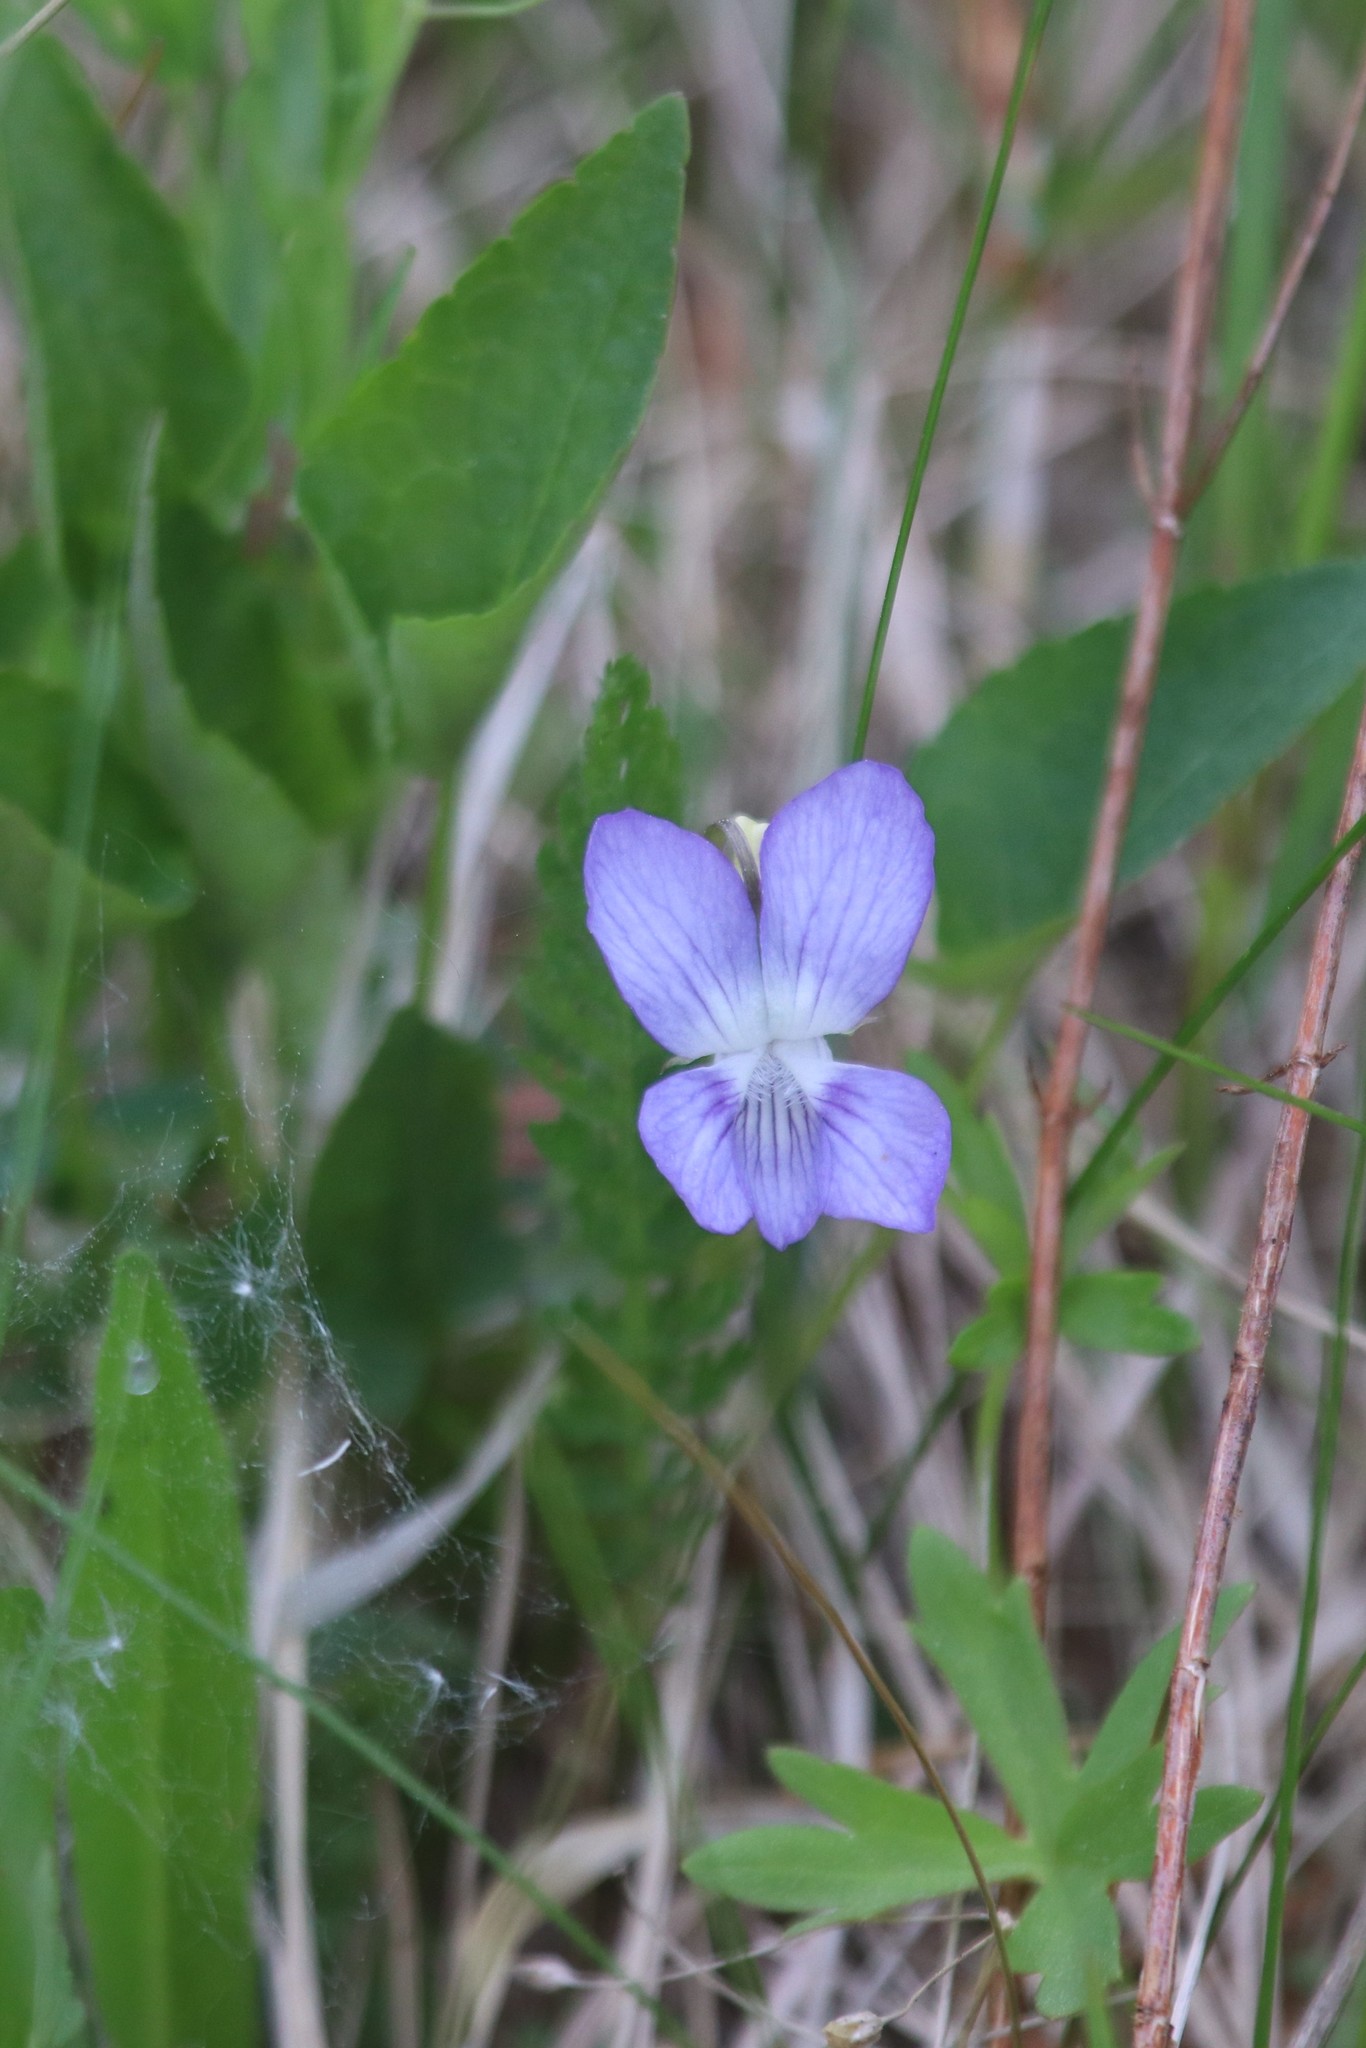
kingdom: Plantae
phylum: Tracheophyta
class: Magnoliopsida
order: Malpighiales
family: Violaceae
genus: Viola
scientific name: Viola canina
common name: Heath dog-violet
